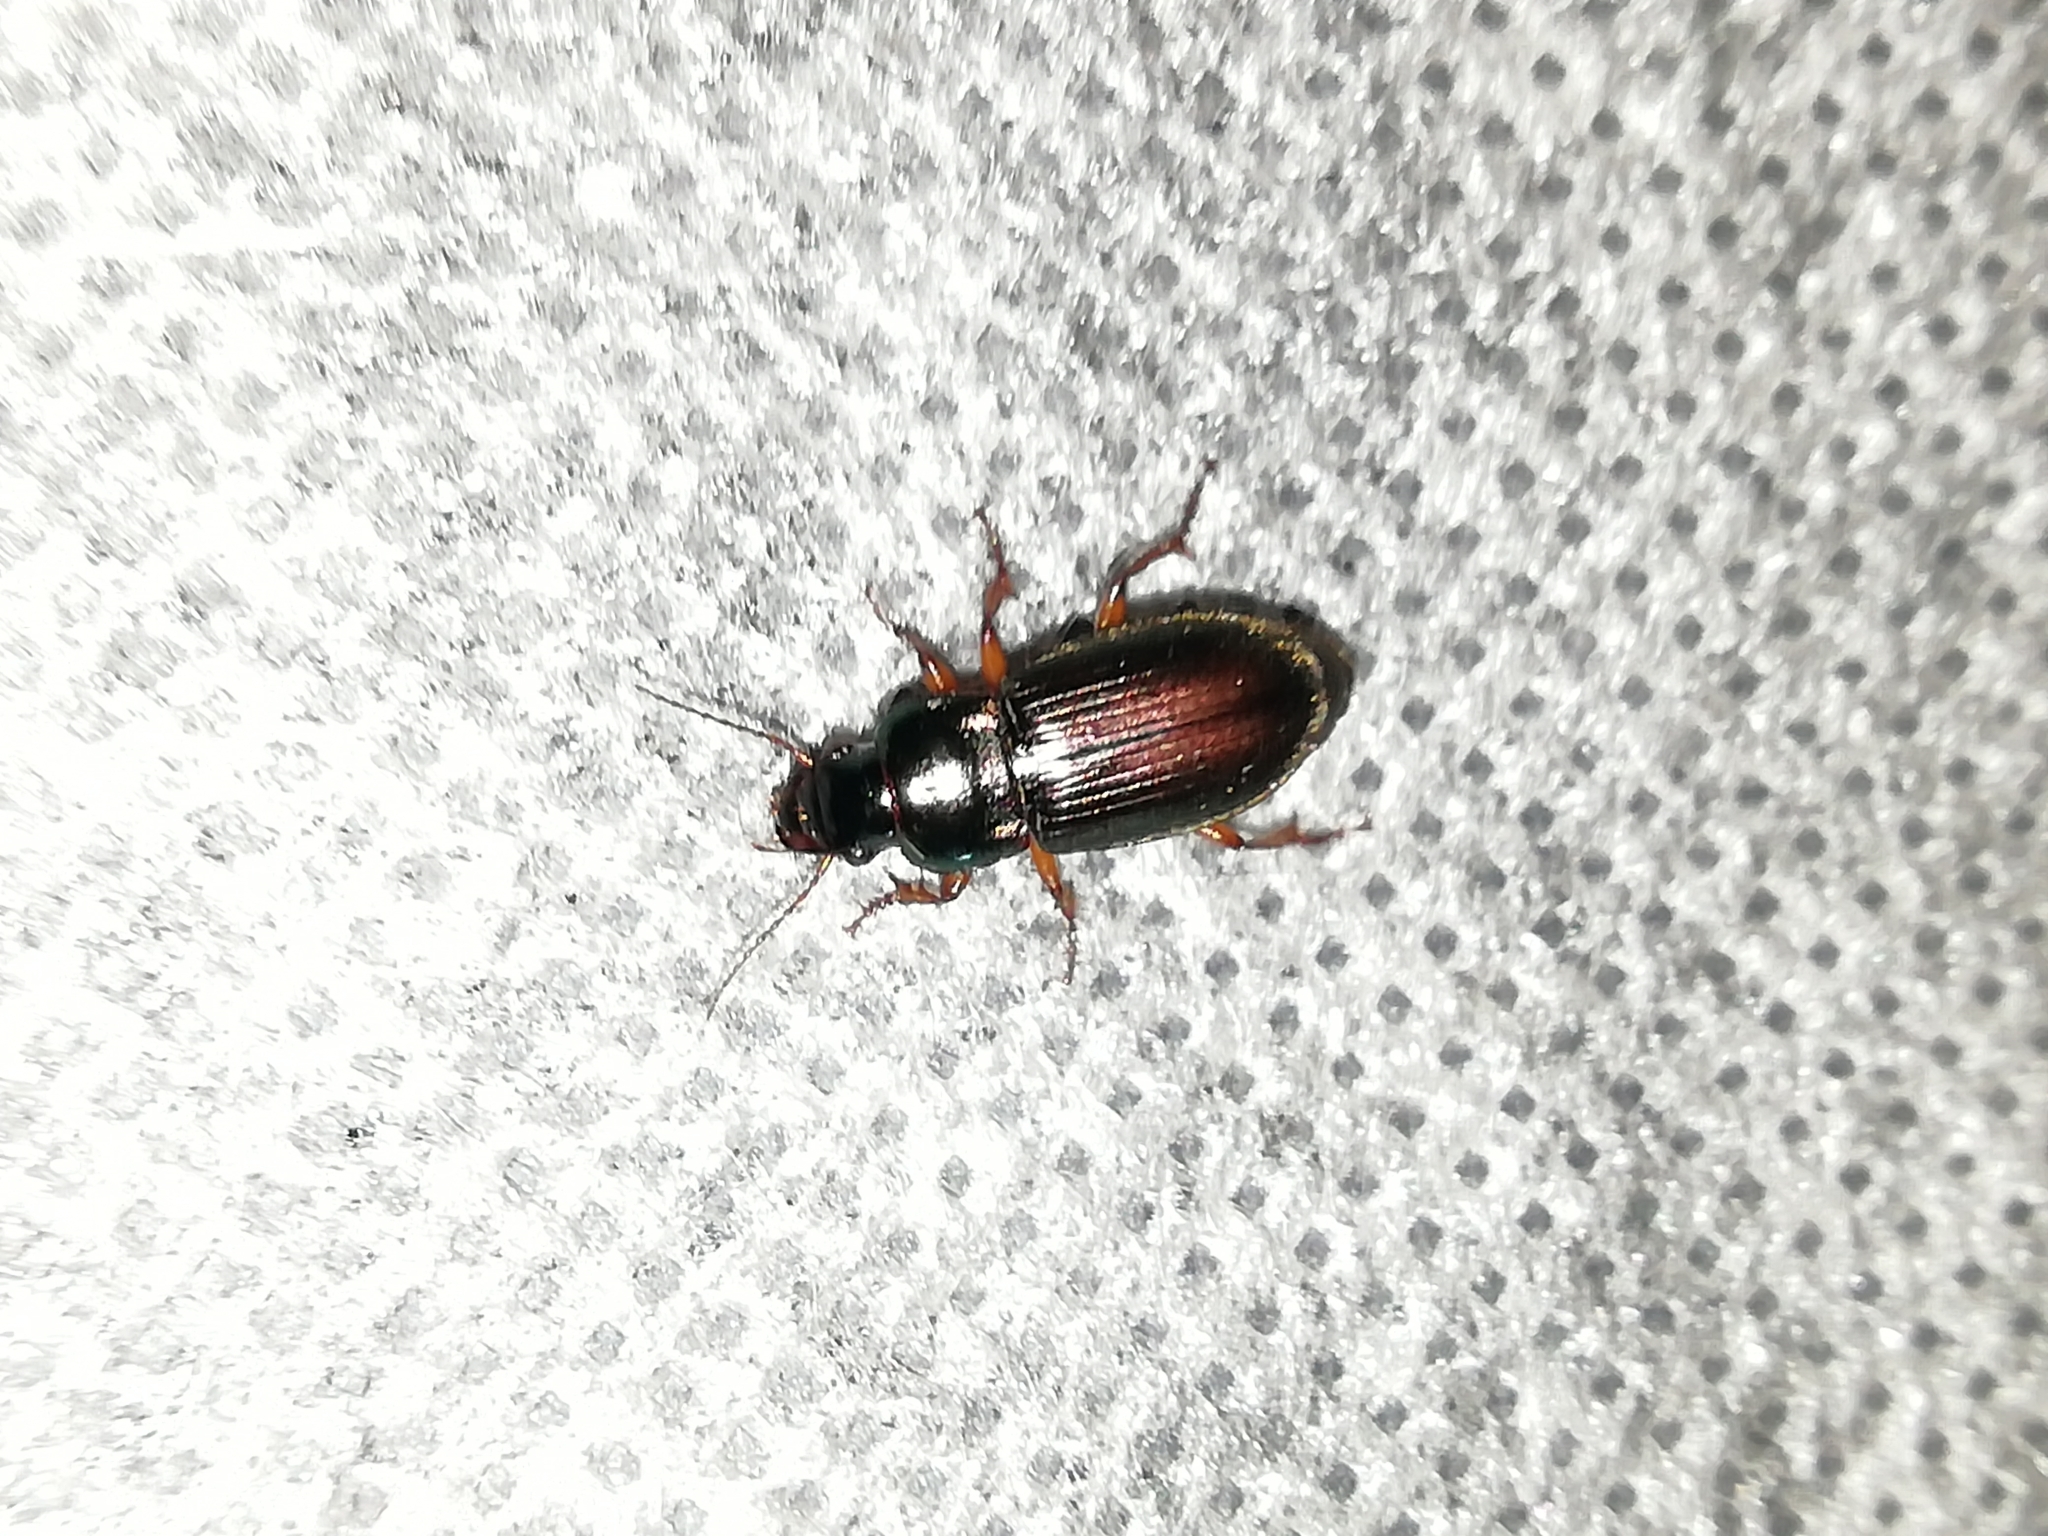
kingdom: Animalia
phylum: Arthropoda
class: Insecta
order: Coleoptera
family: Carabidae
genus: Harpalus
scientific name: Harpalus affinis
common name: Polychrome harp ground beetle
